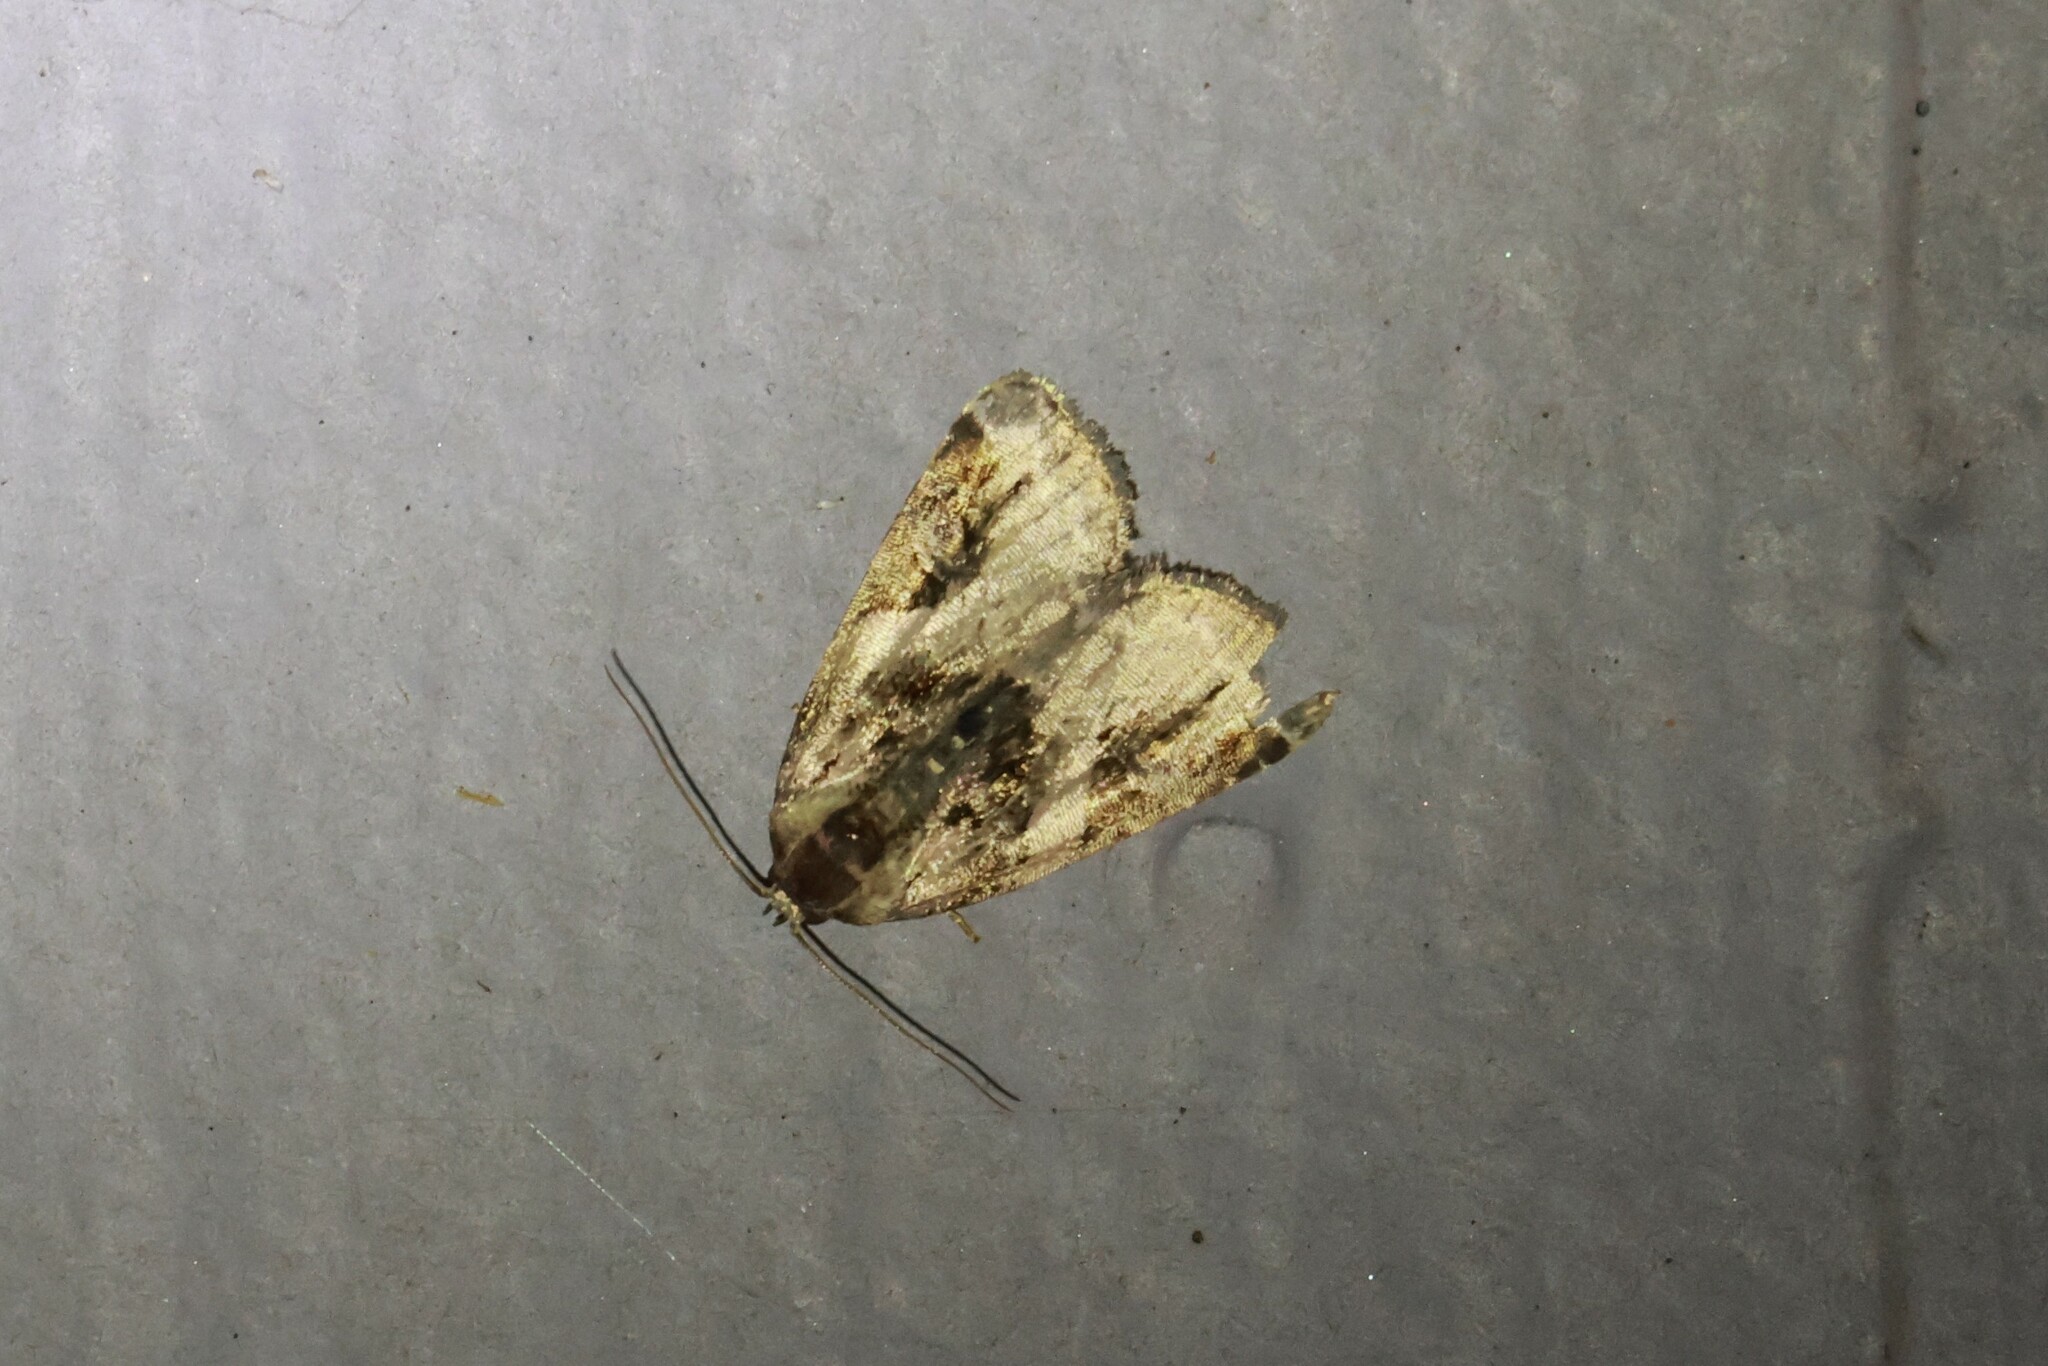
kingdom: Animalia
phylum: Arthropoda
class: Insecta
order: Lepidoptera
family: Noctuidae
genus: Pseudeustrotia
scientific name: Pseudeustrotia carneola
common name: Pink-barred lithacodia moth
